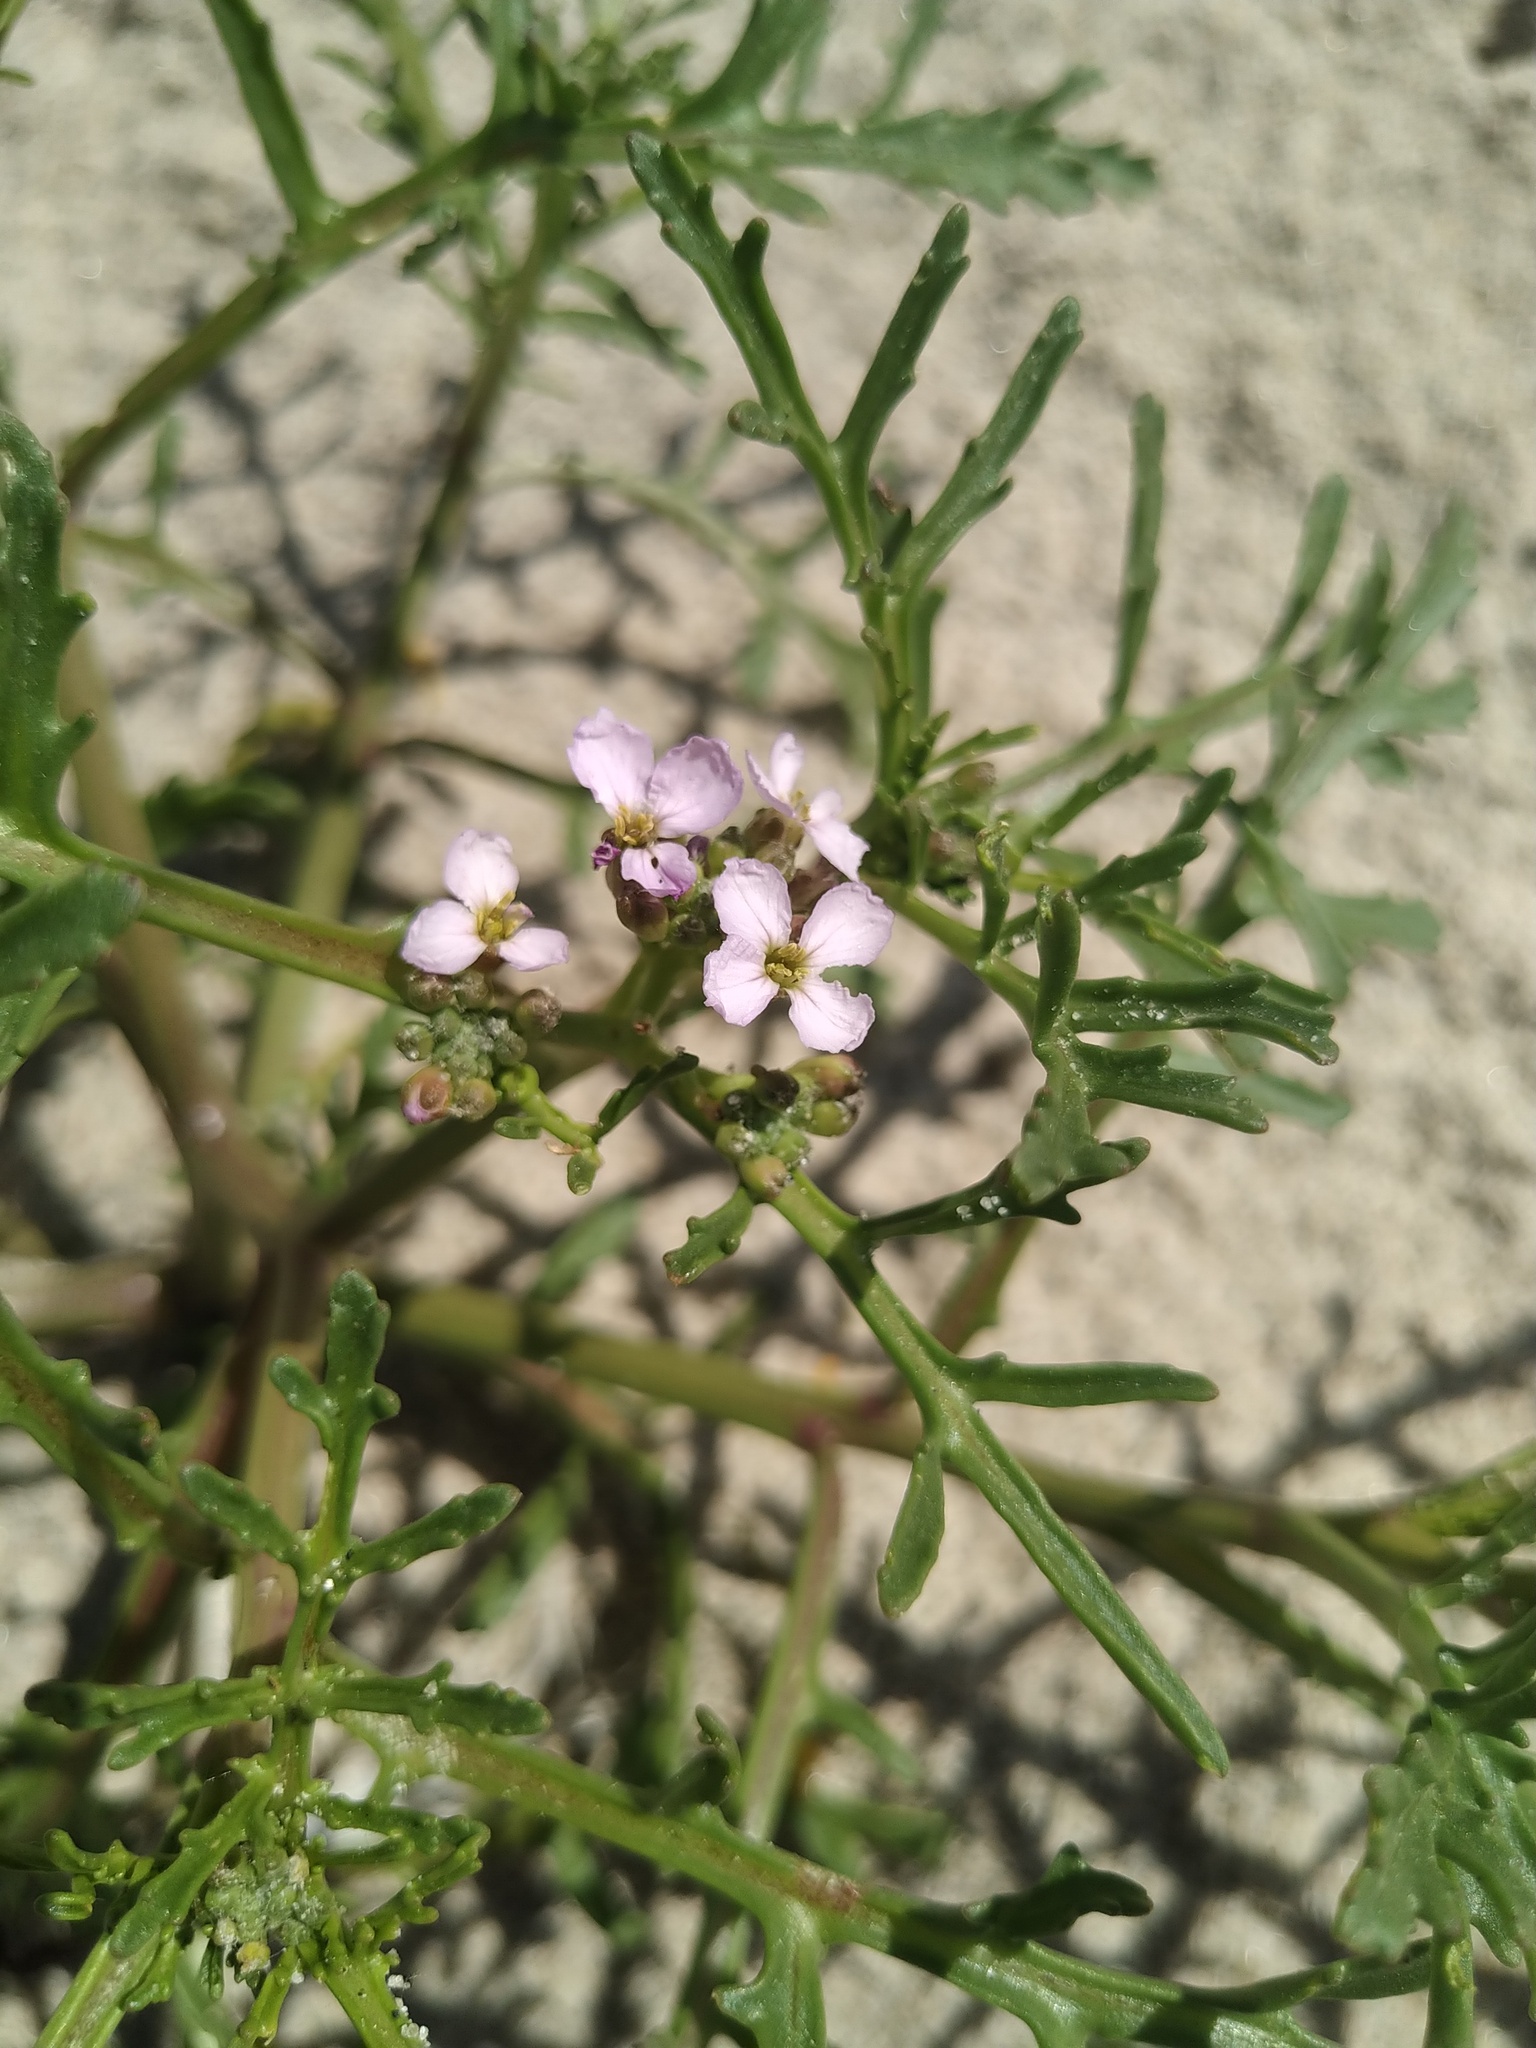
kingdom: Plantae
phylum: Tracheophyta
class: Magnoliopsida
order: Brassicales
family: Brassicaceae
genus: Cakile
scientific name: Cakile maritima
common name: Sea rocket
